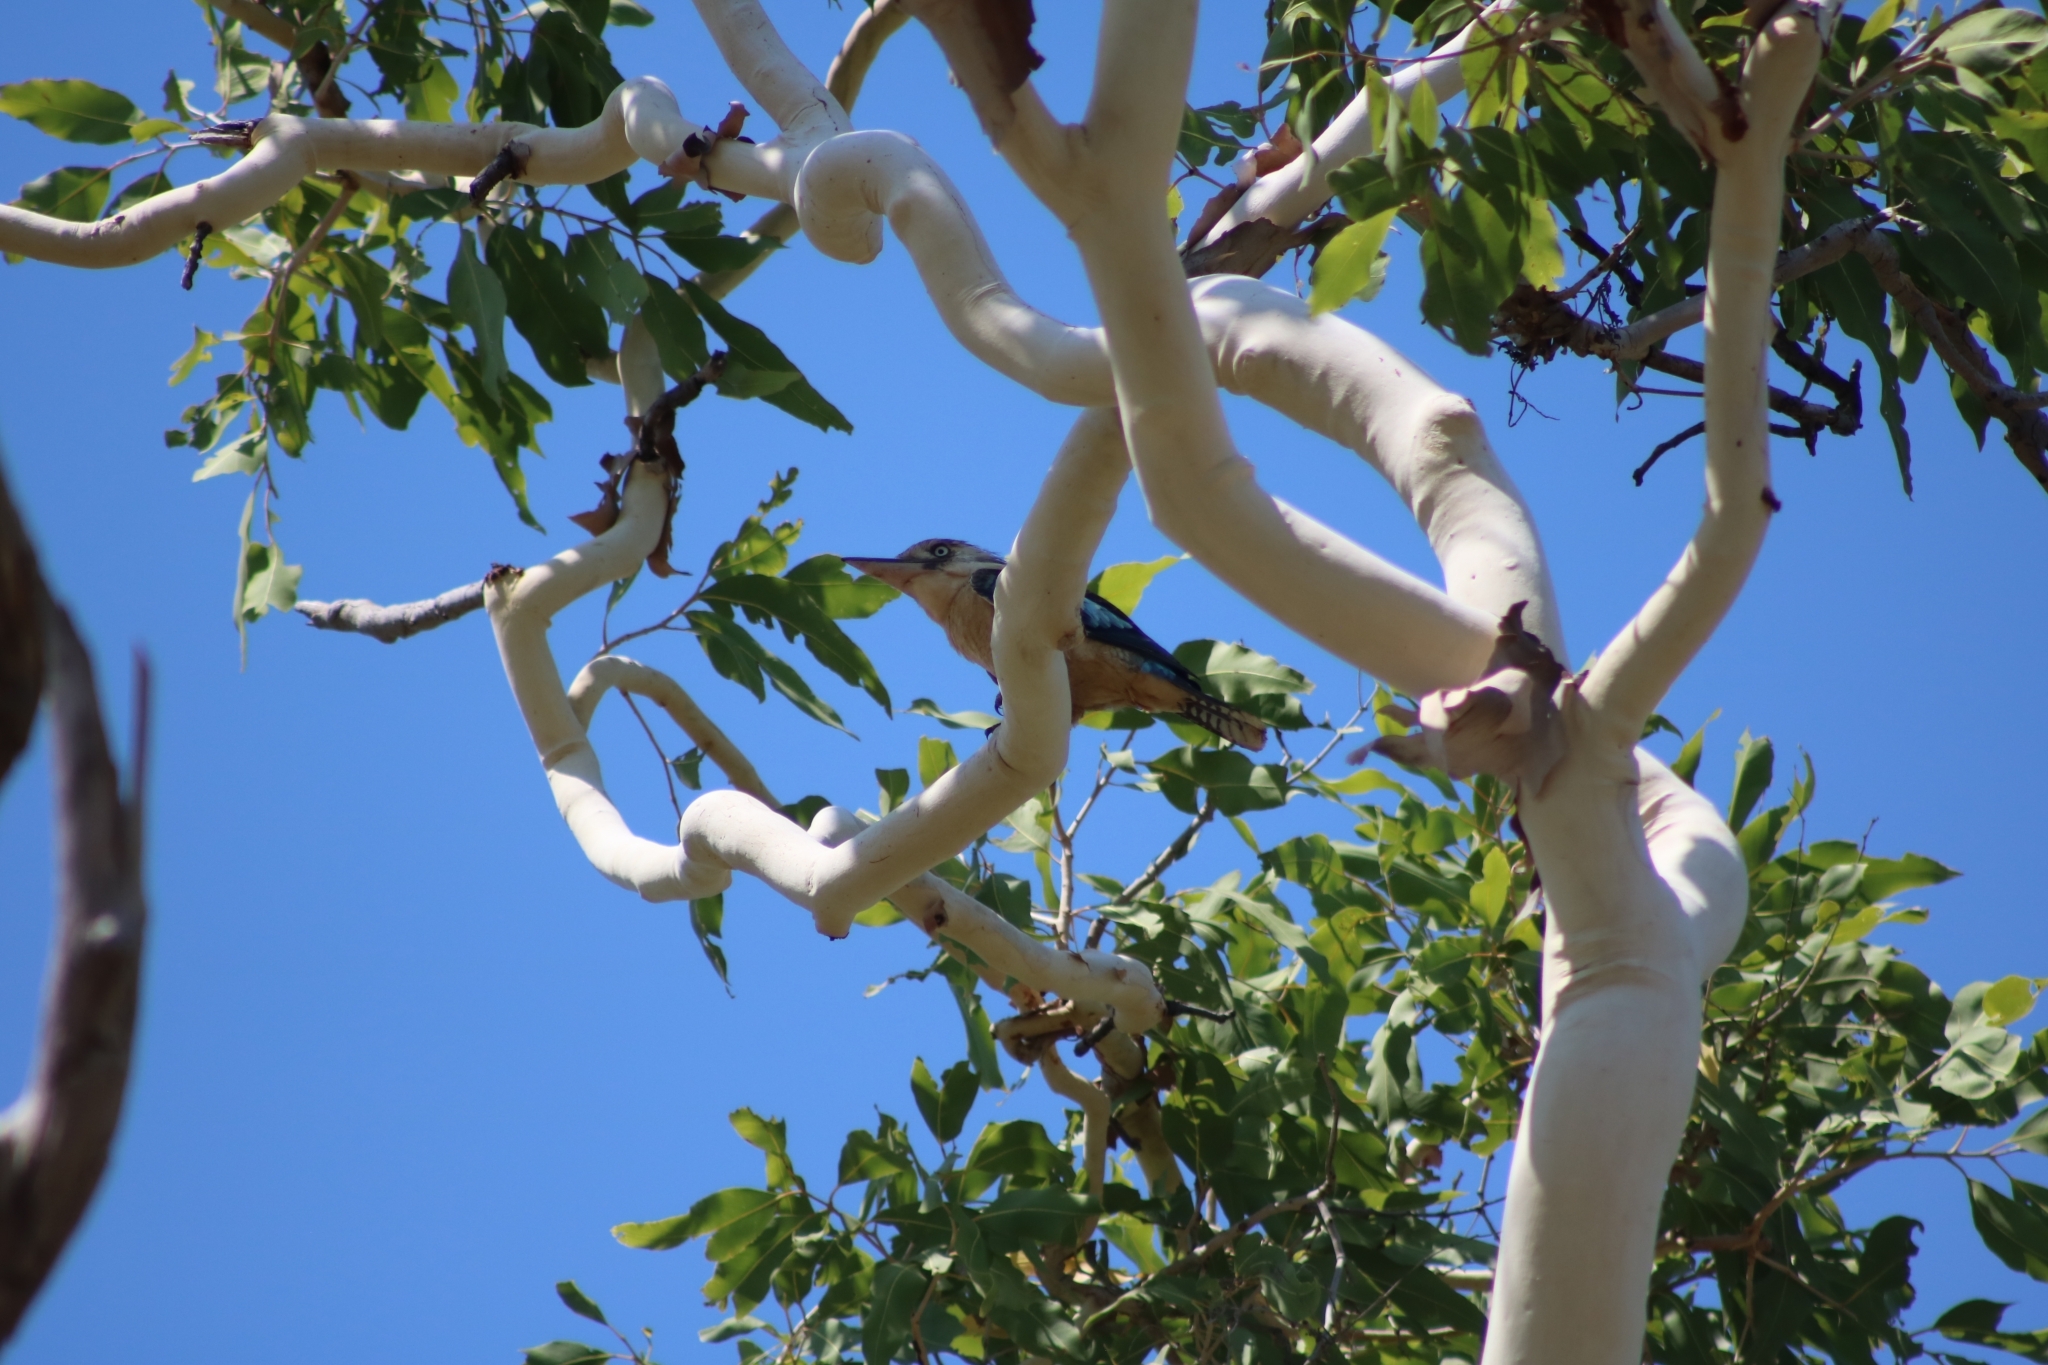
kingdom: Animalia
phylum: Chordata
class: Aves
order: Coraciiformes
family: Alcedinidae
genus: Dacelo
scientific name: Dacelo leachii
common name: Blue-winged kookaburra
